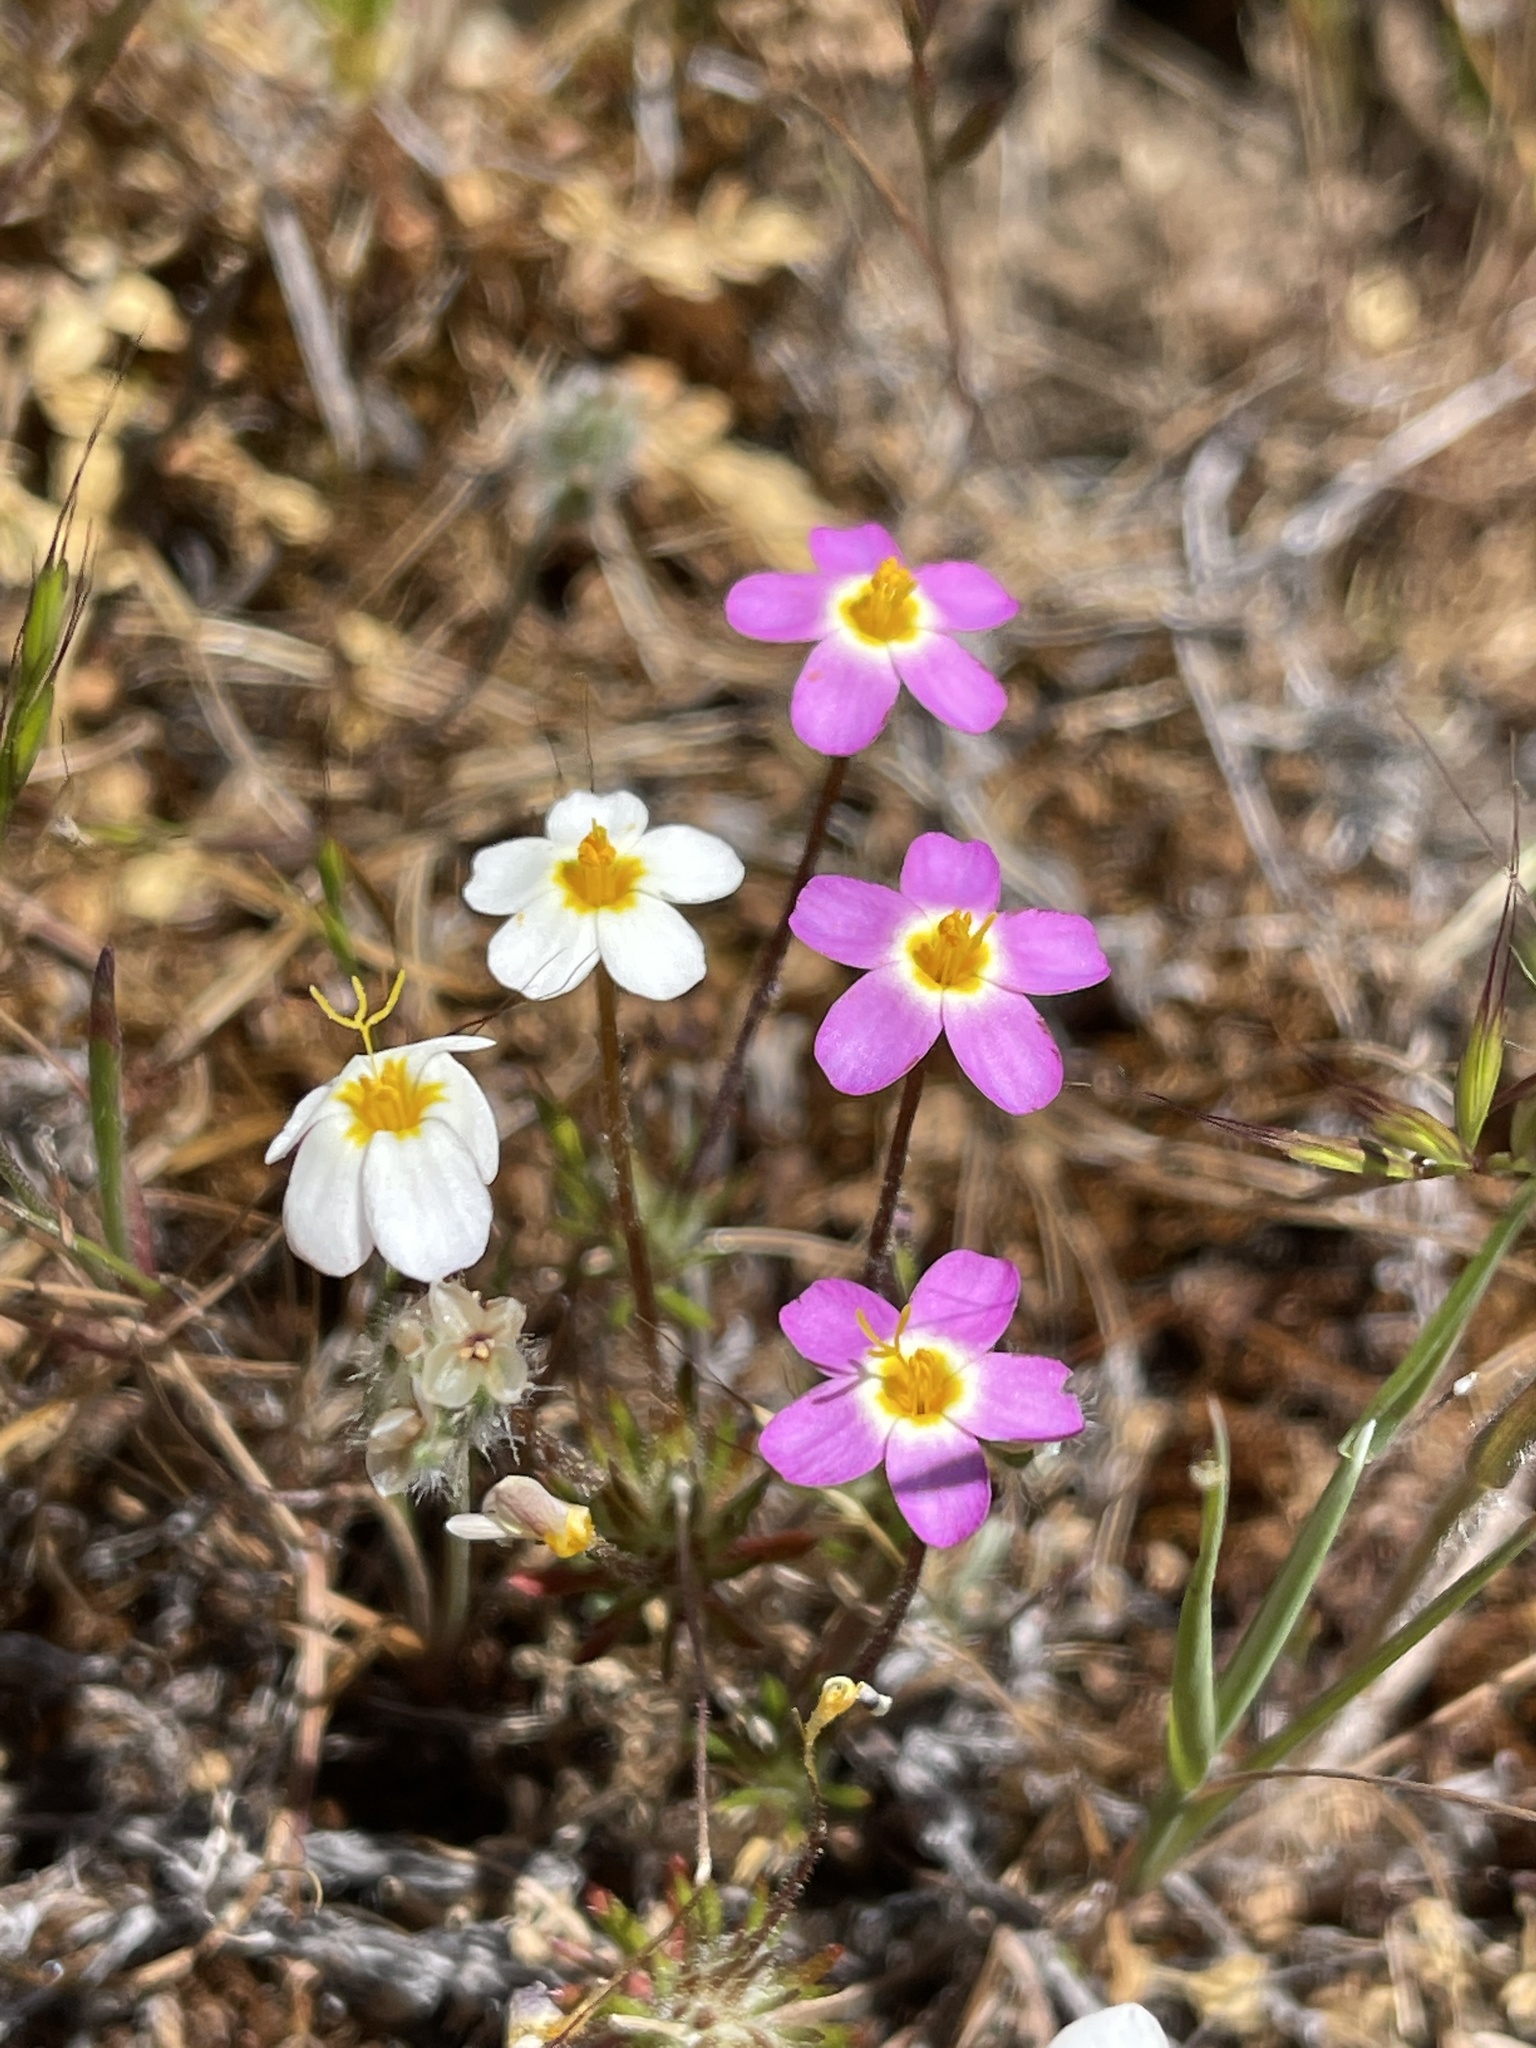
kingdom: Plantae
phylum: Tracheophyta
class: Magnoliopsida
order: Ericales
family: Polemoniaceae
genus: Leptosiphon
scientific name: Leptosiphon parviflorus
